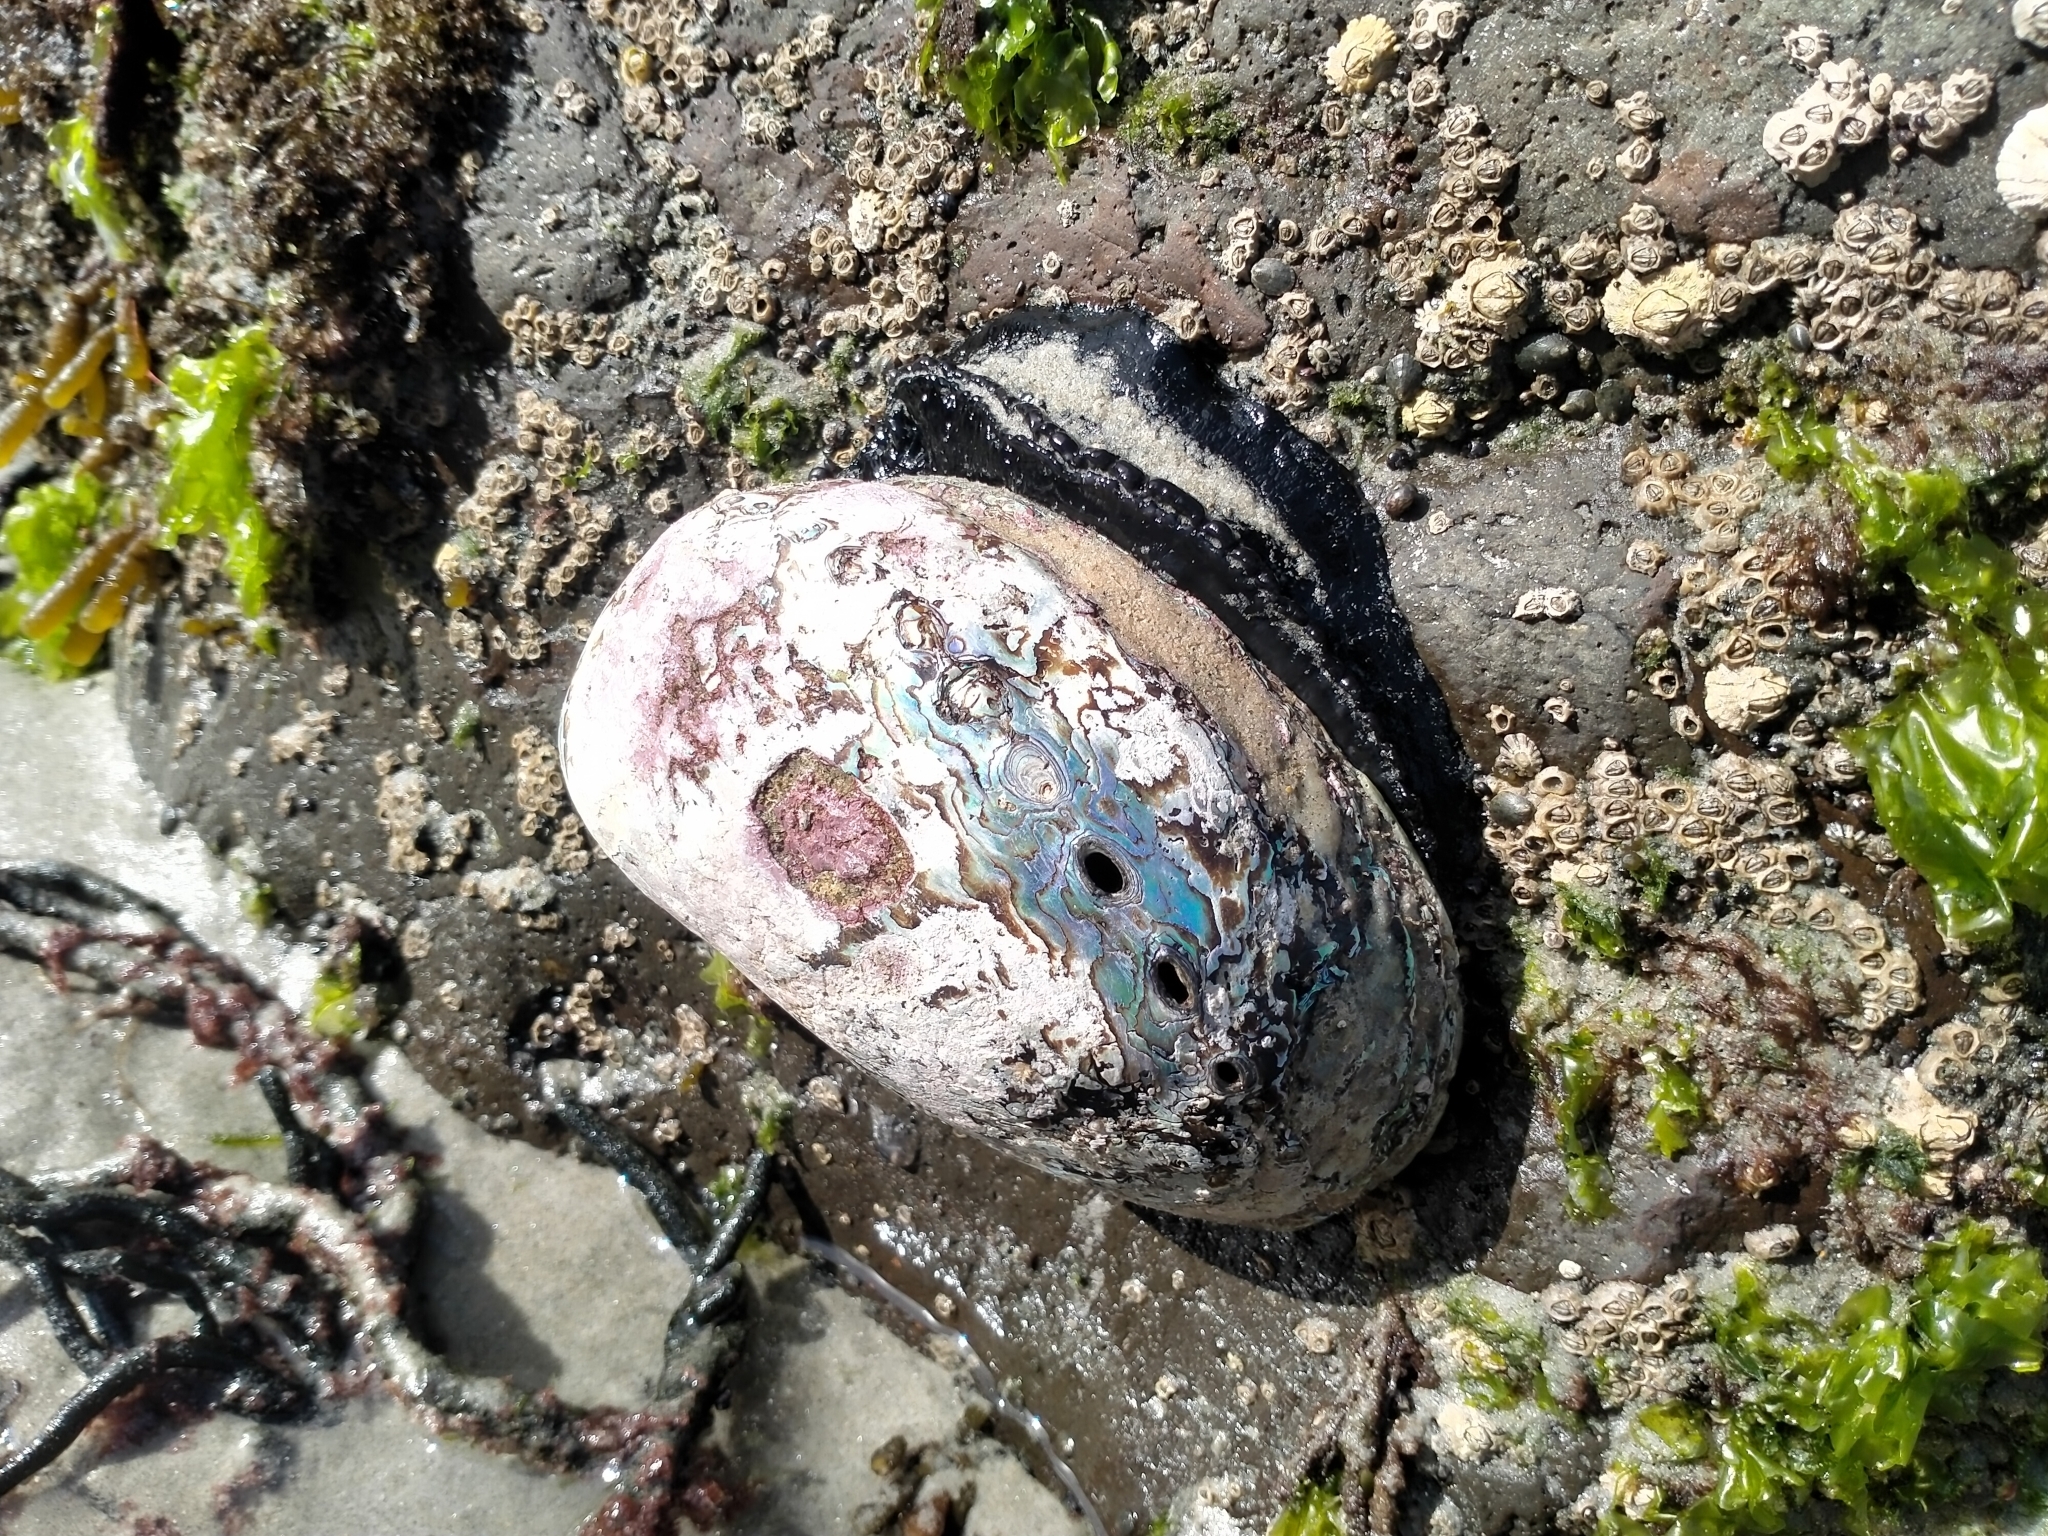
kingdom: Animalia
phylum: Mollusca
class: Gastropoda
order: Lepetellida
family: Haliotidae
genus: Haliotis
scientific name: Haliotis iris
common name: Abalone
